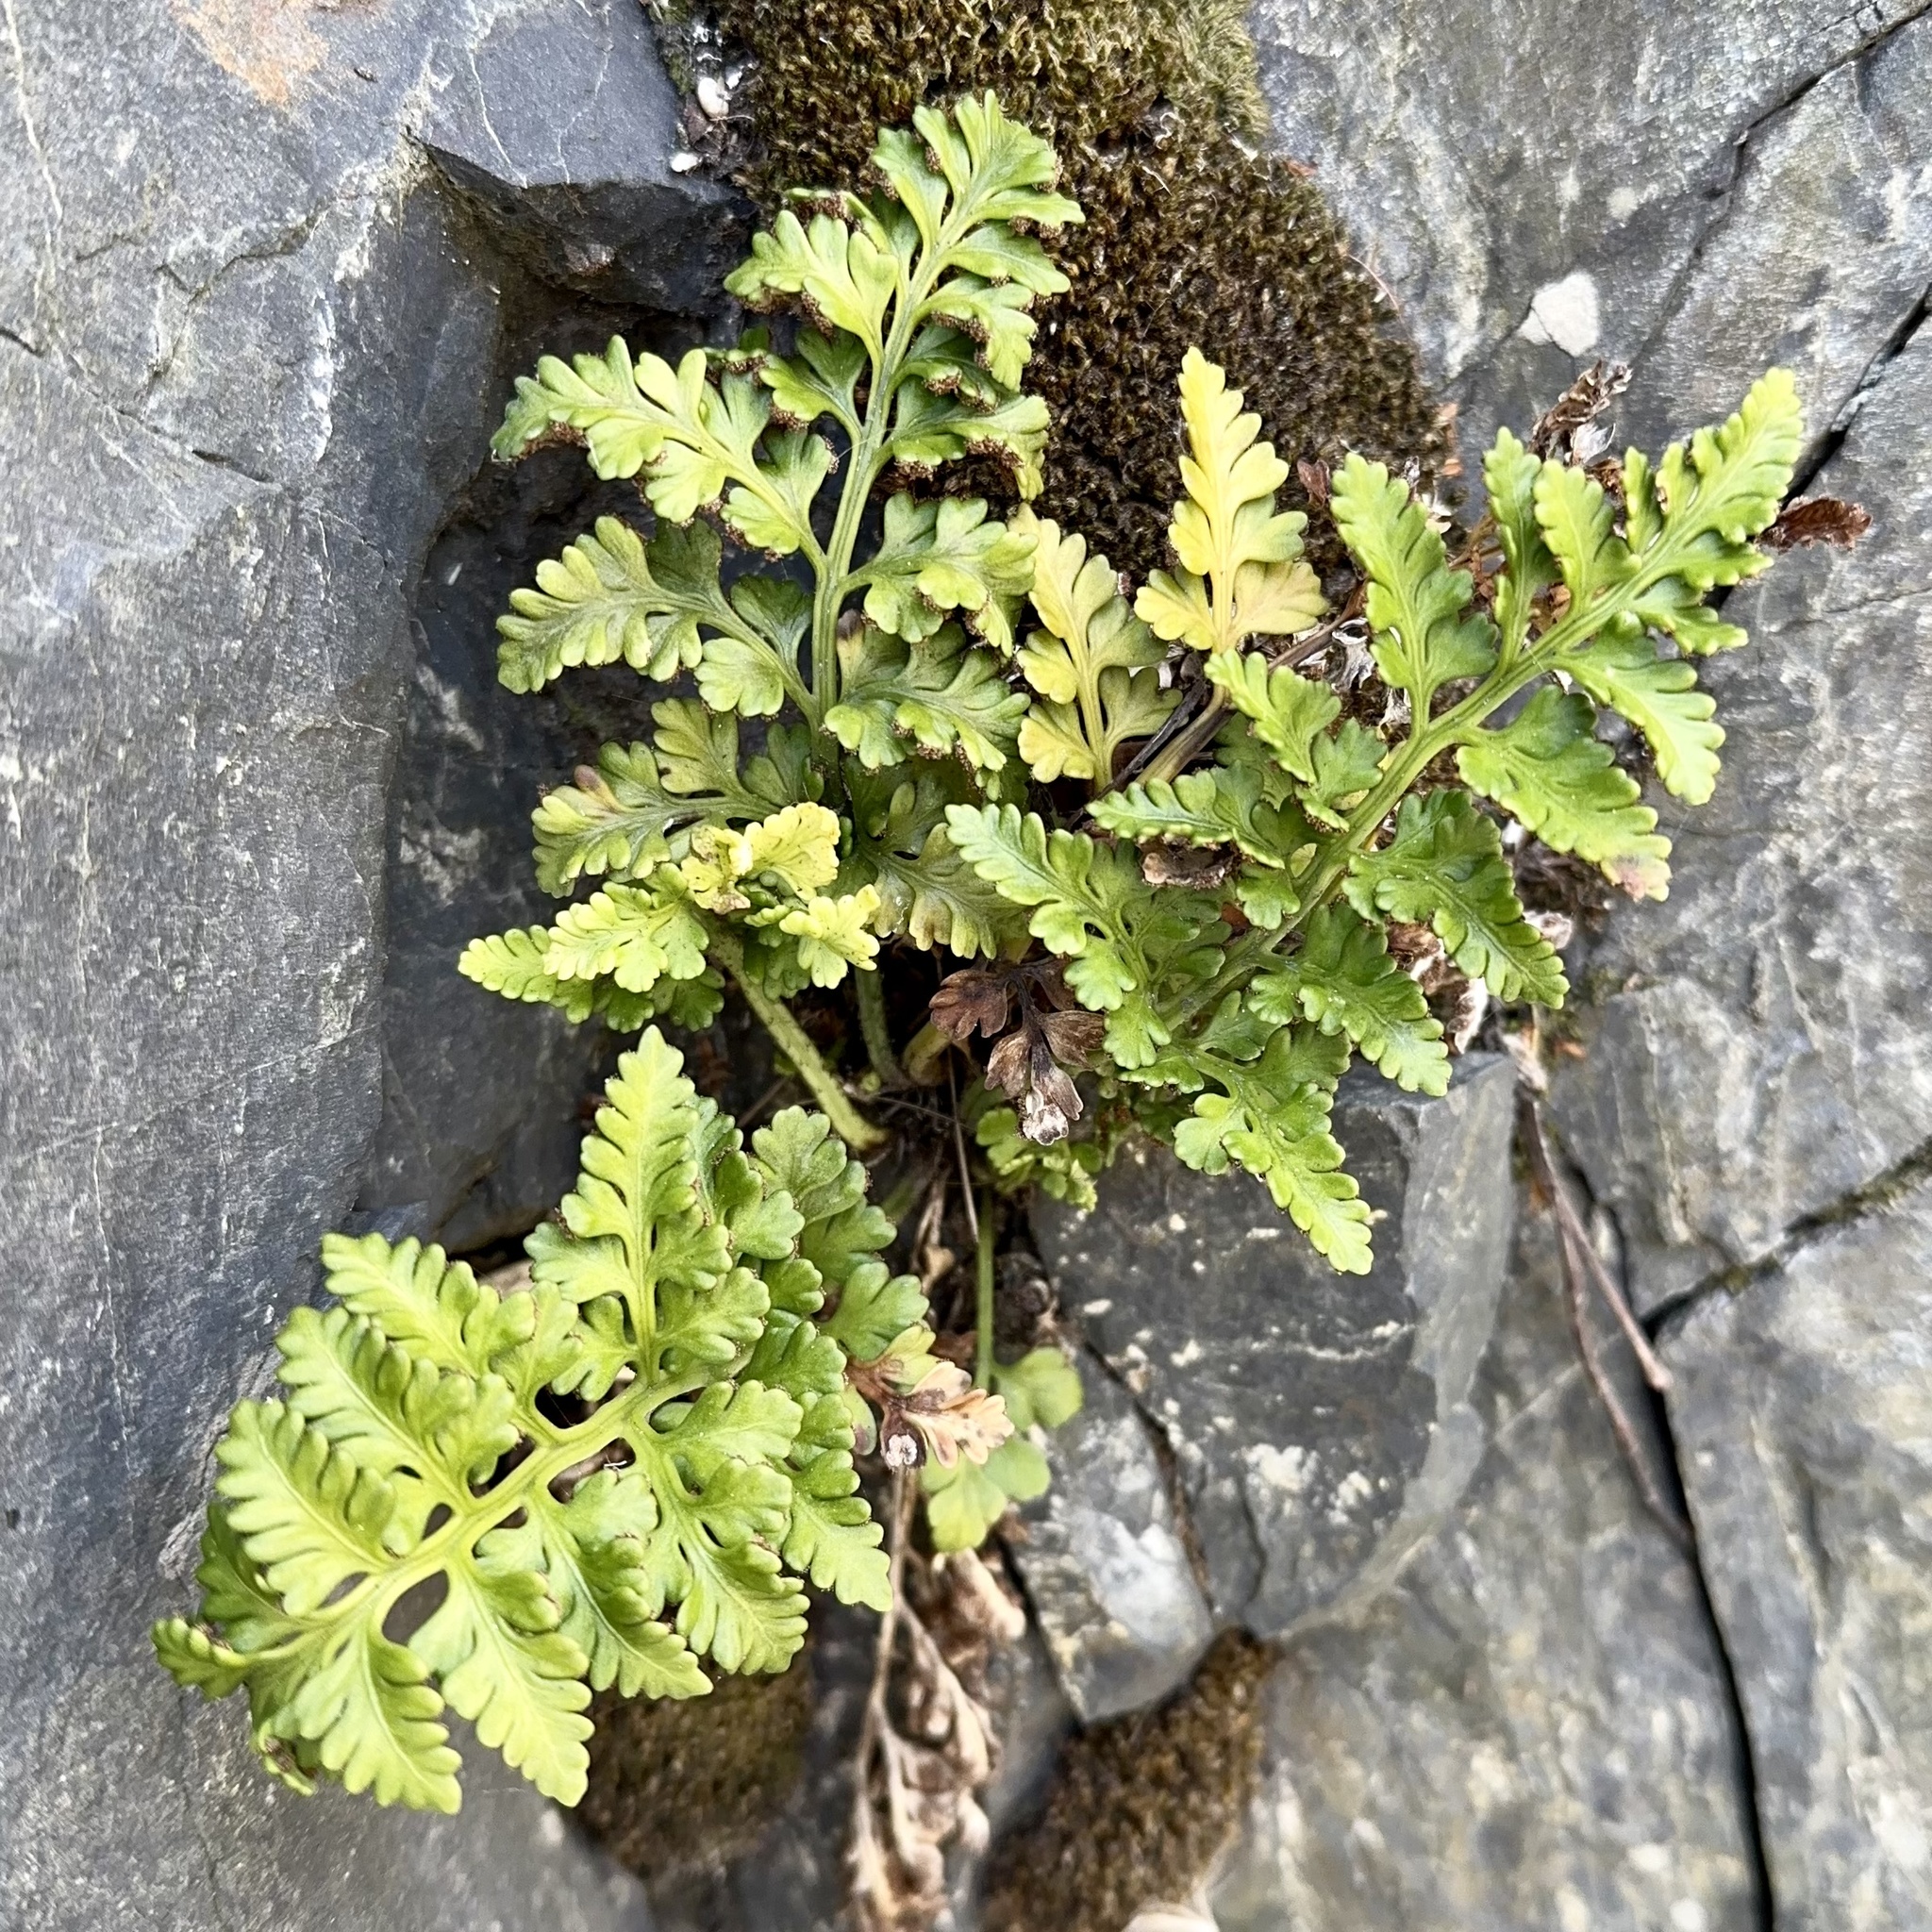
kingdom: Plantae
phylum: Tracheophyta
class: Polypodiopsida
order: Polypodiales
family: Aspleniaceae
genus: Asplenium
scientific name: Asplenium appendiculatum
